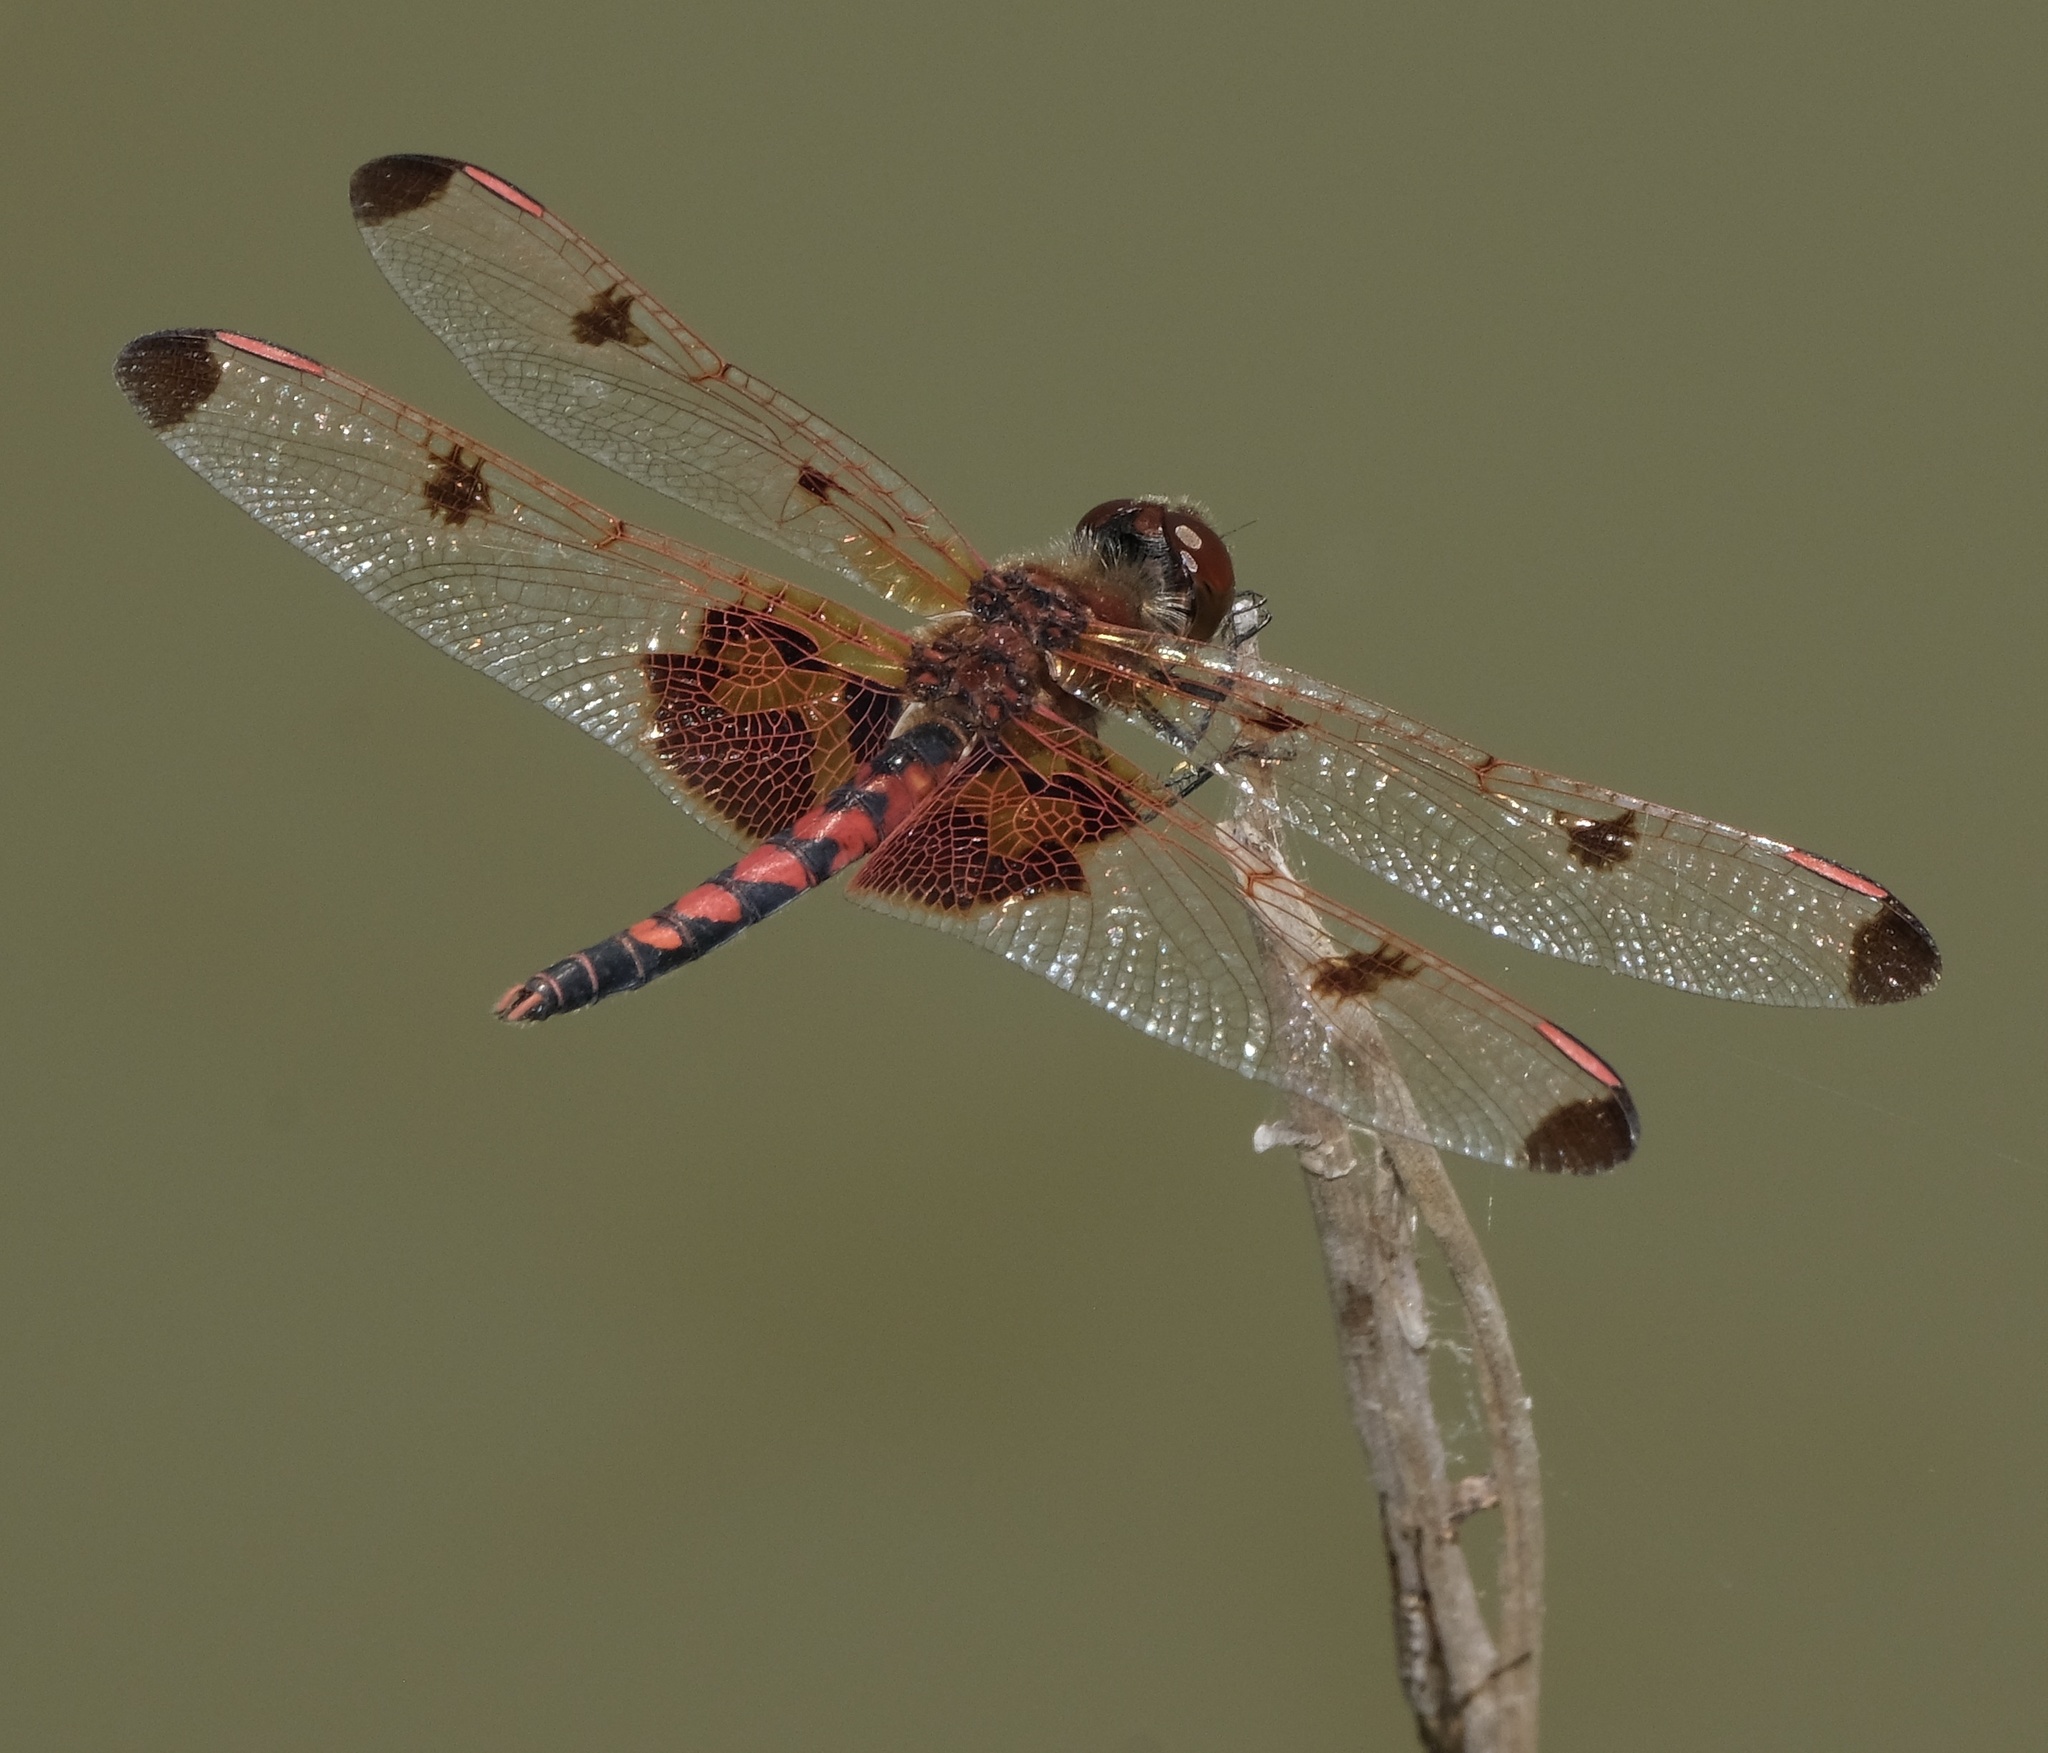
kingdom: Animalia
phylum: Arthropoda
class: Insecta
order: Odonata
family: Libellulidae
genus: Celithemis
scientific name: Celithemis elisa
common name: Calico pennant
